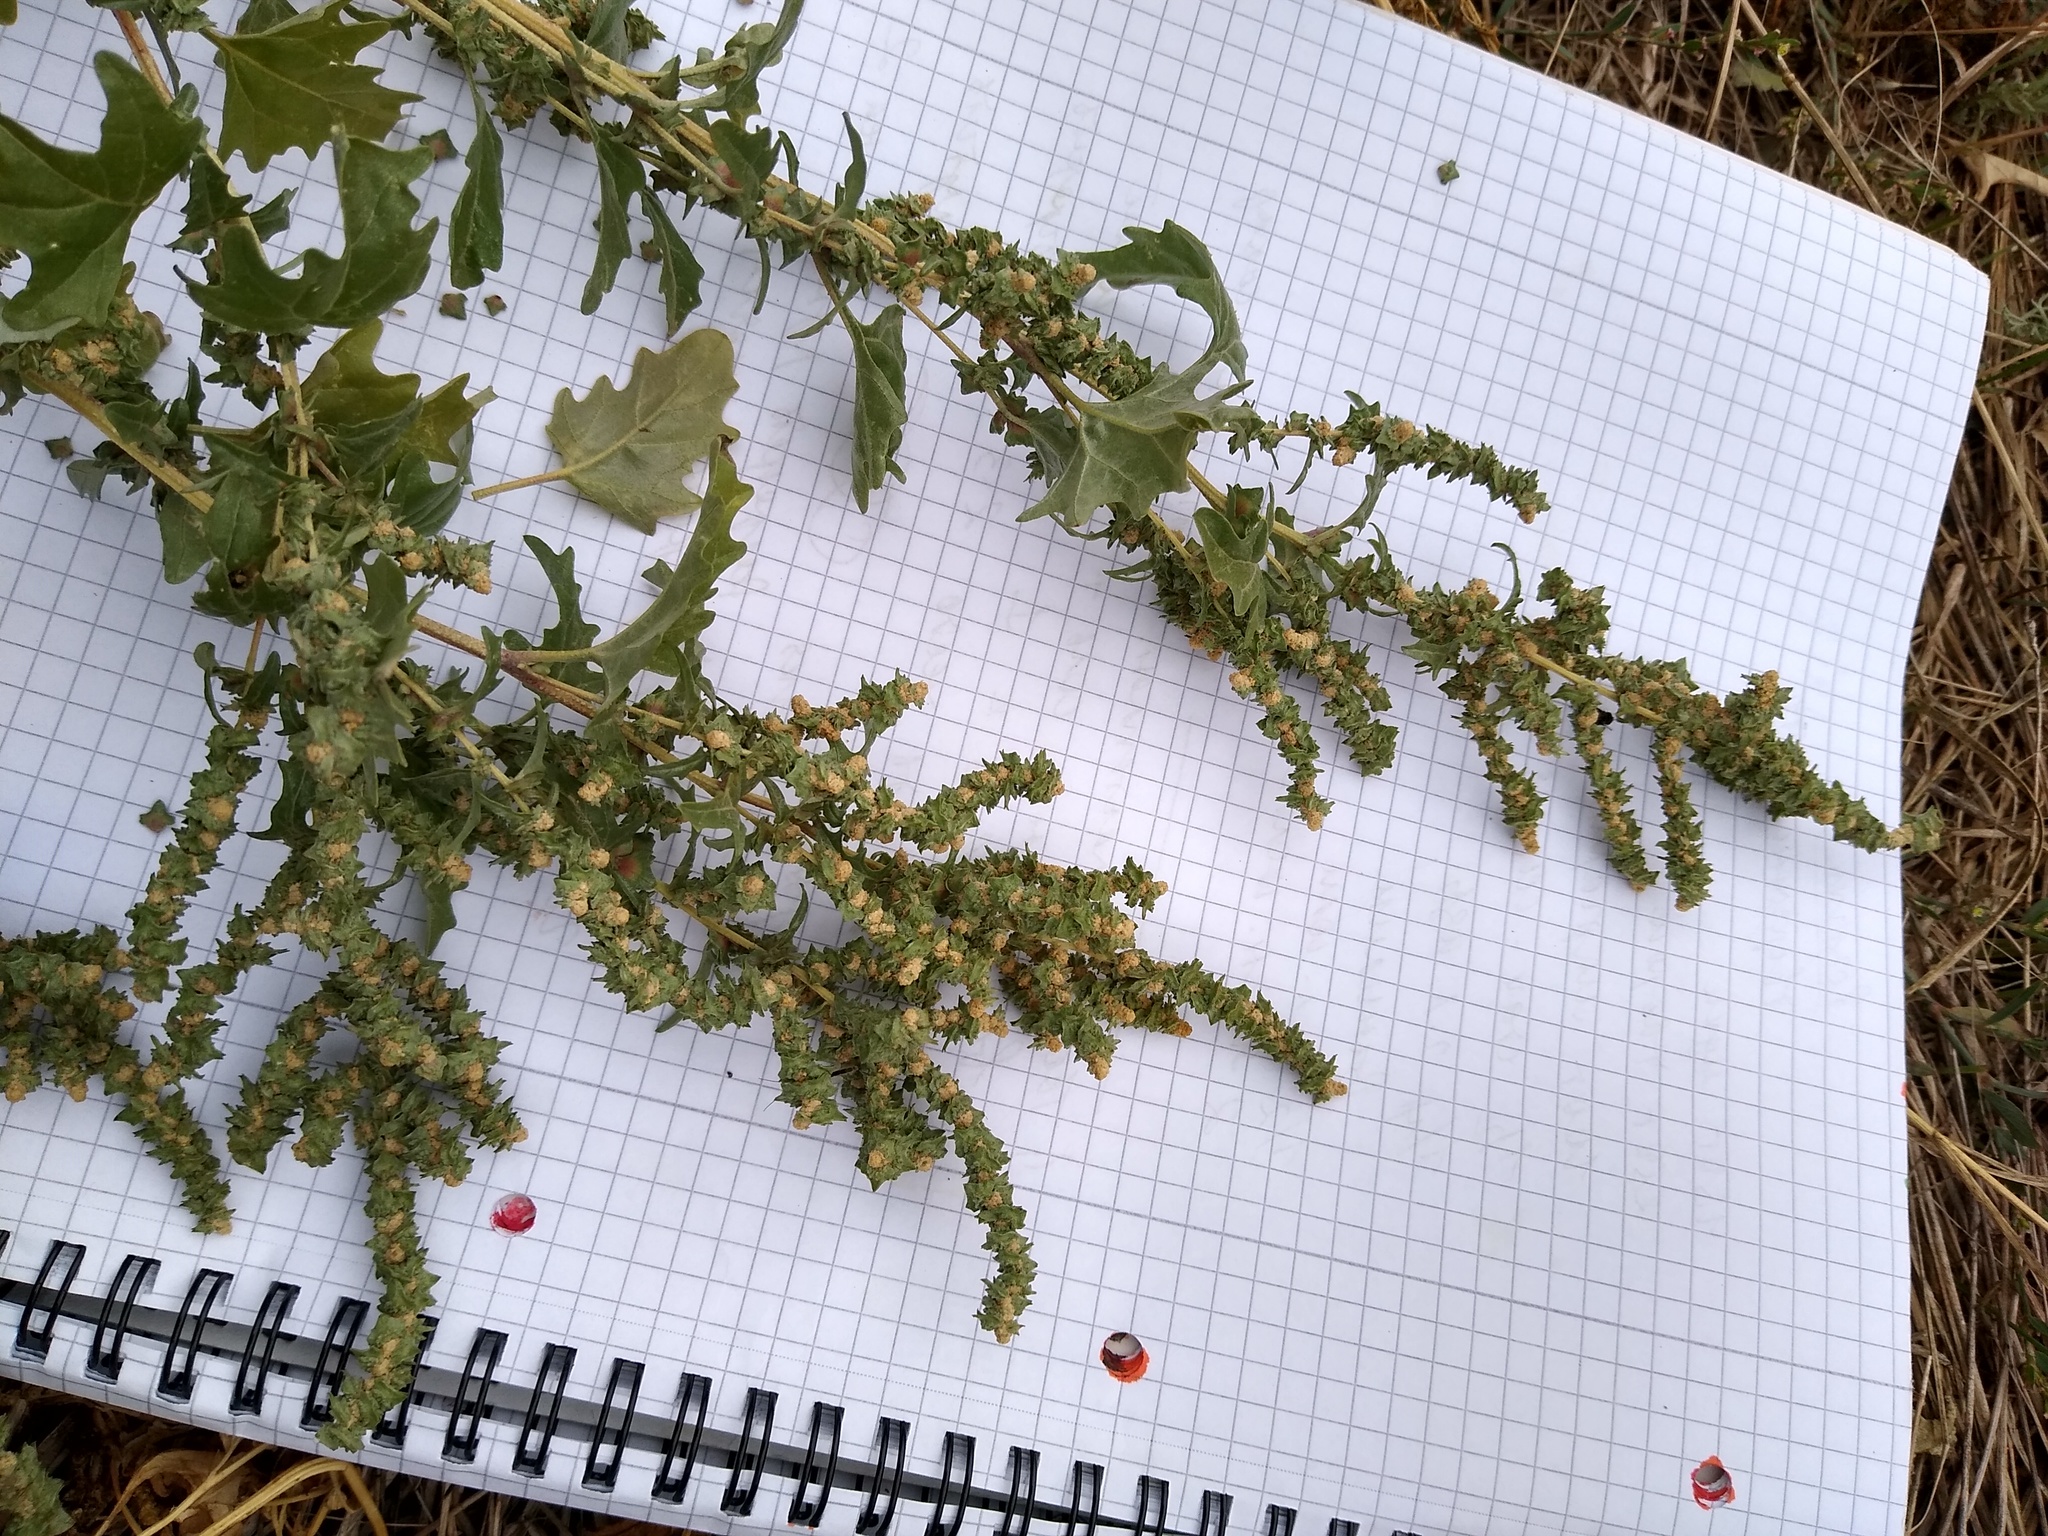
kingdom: Plantae
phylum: Tracheophyta
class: Magnoliopsida
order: Caryophyllales
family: Amaranthaceae
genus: Atriplex
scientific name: Atriplex tatarica
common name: Tatarian orache
